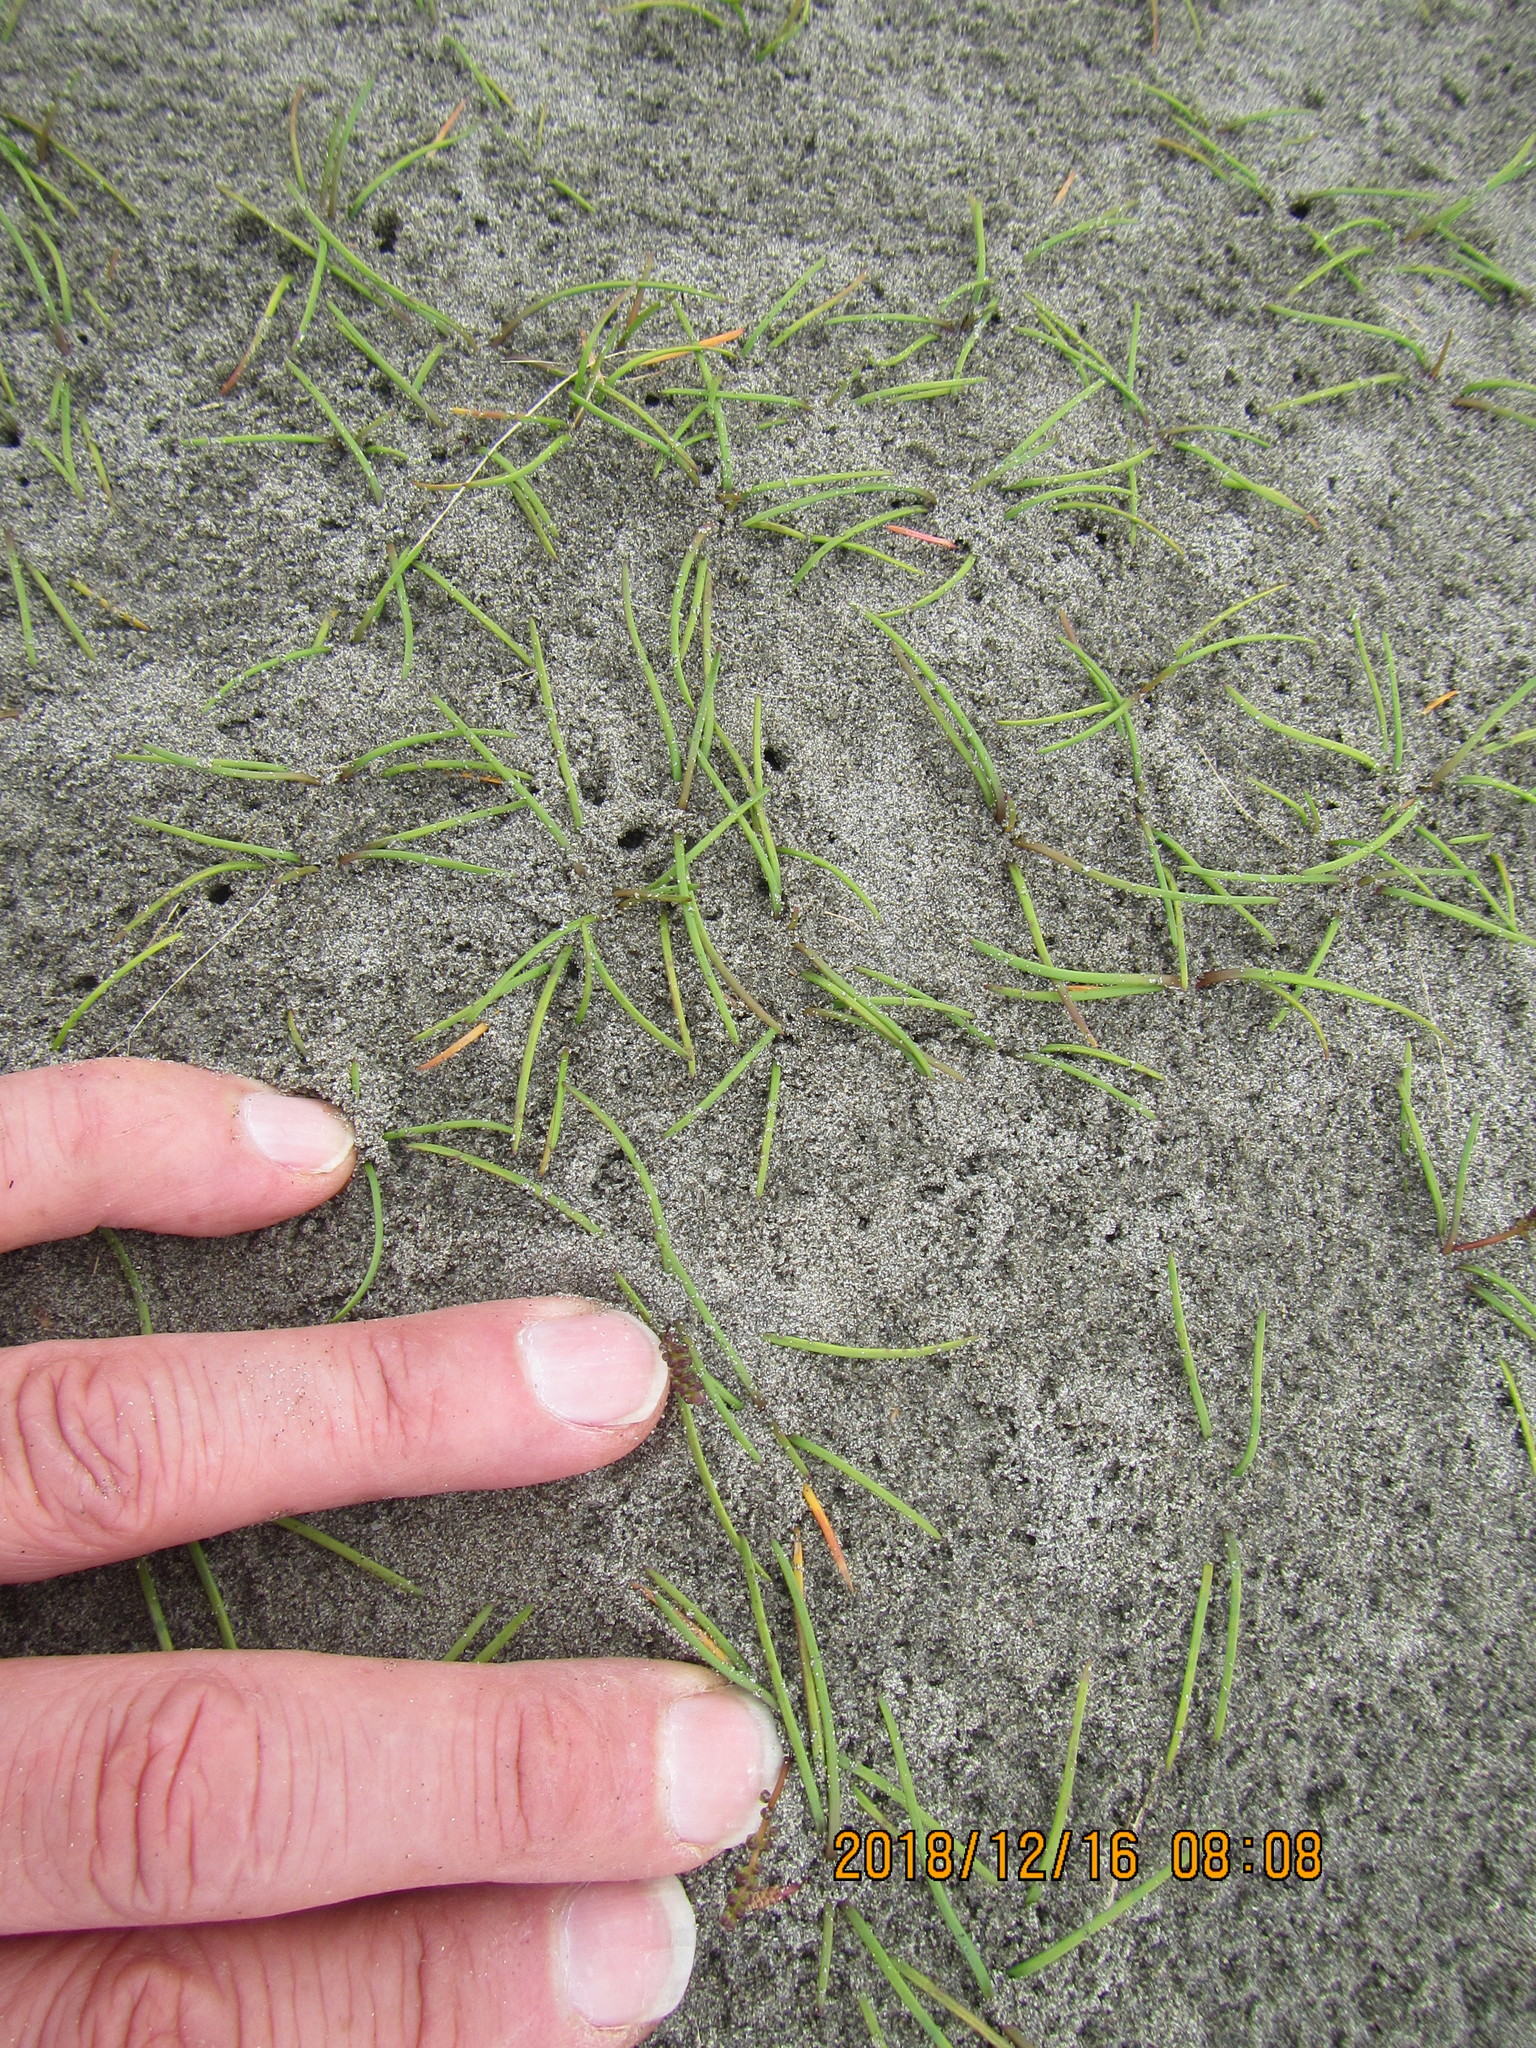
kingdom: Plantae
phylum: Tracheophyta
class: Liliopsida
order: Alismatales
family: Juncaginaceae
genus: Triglochin
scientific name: Triglochin striata
